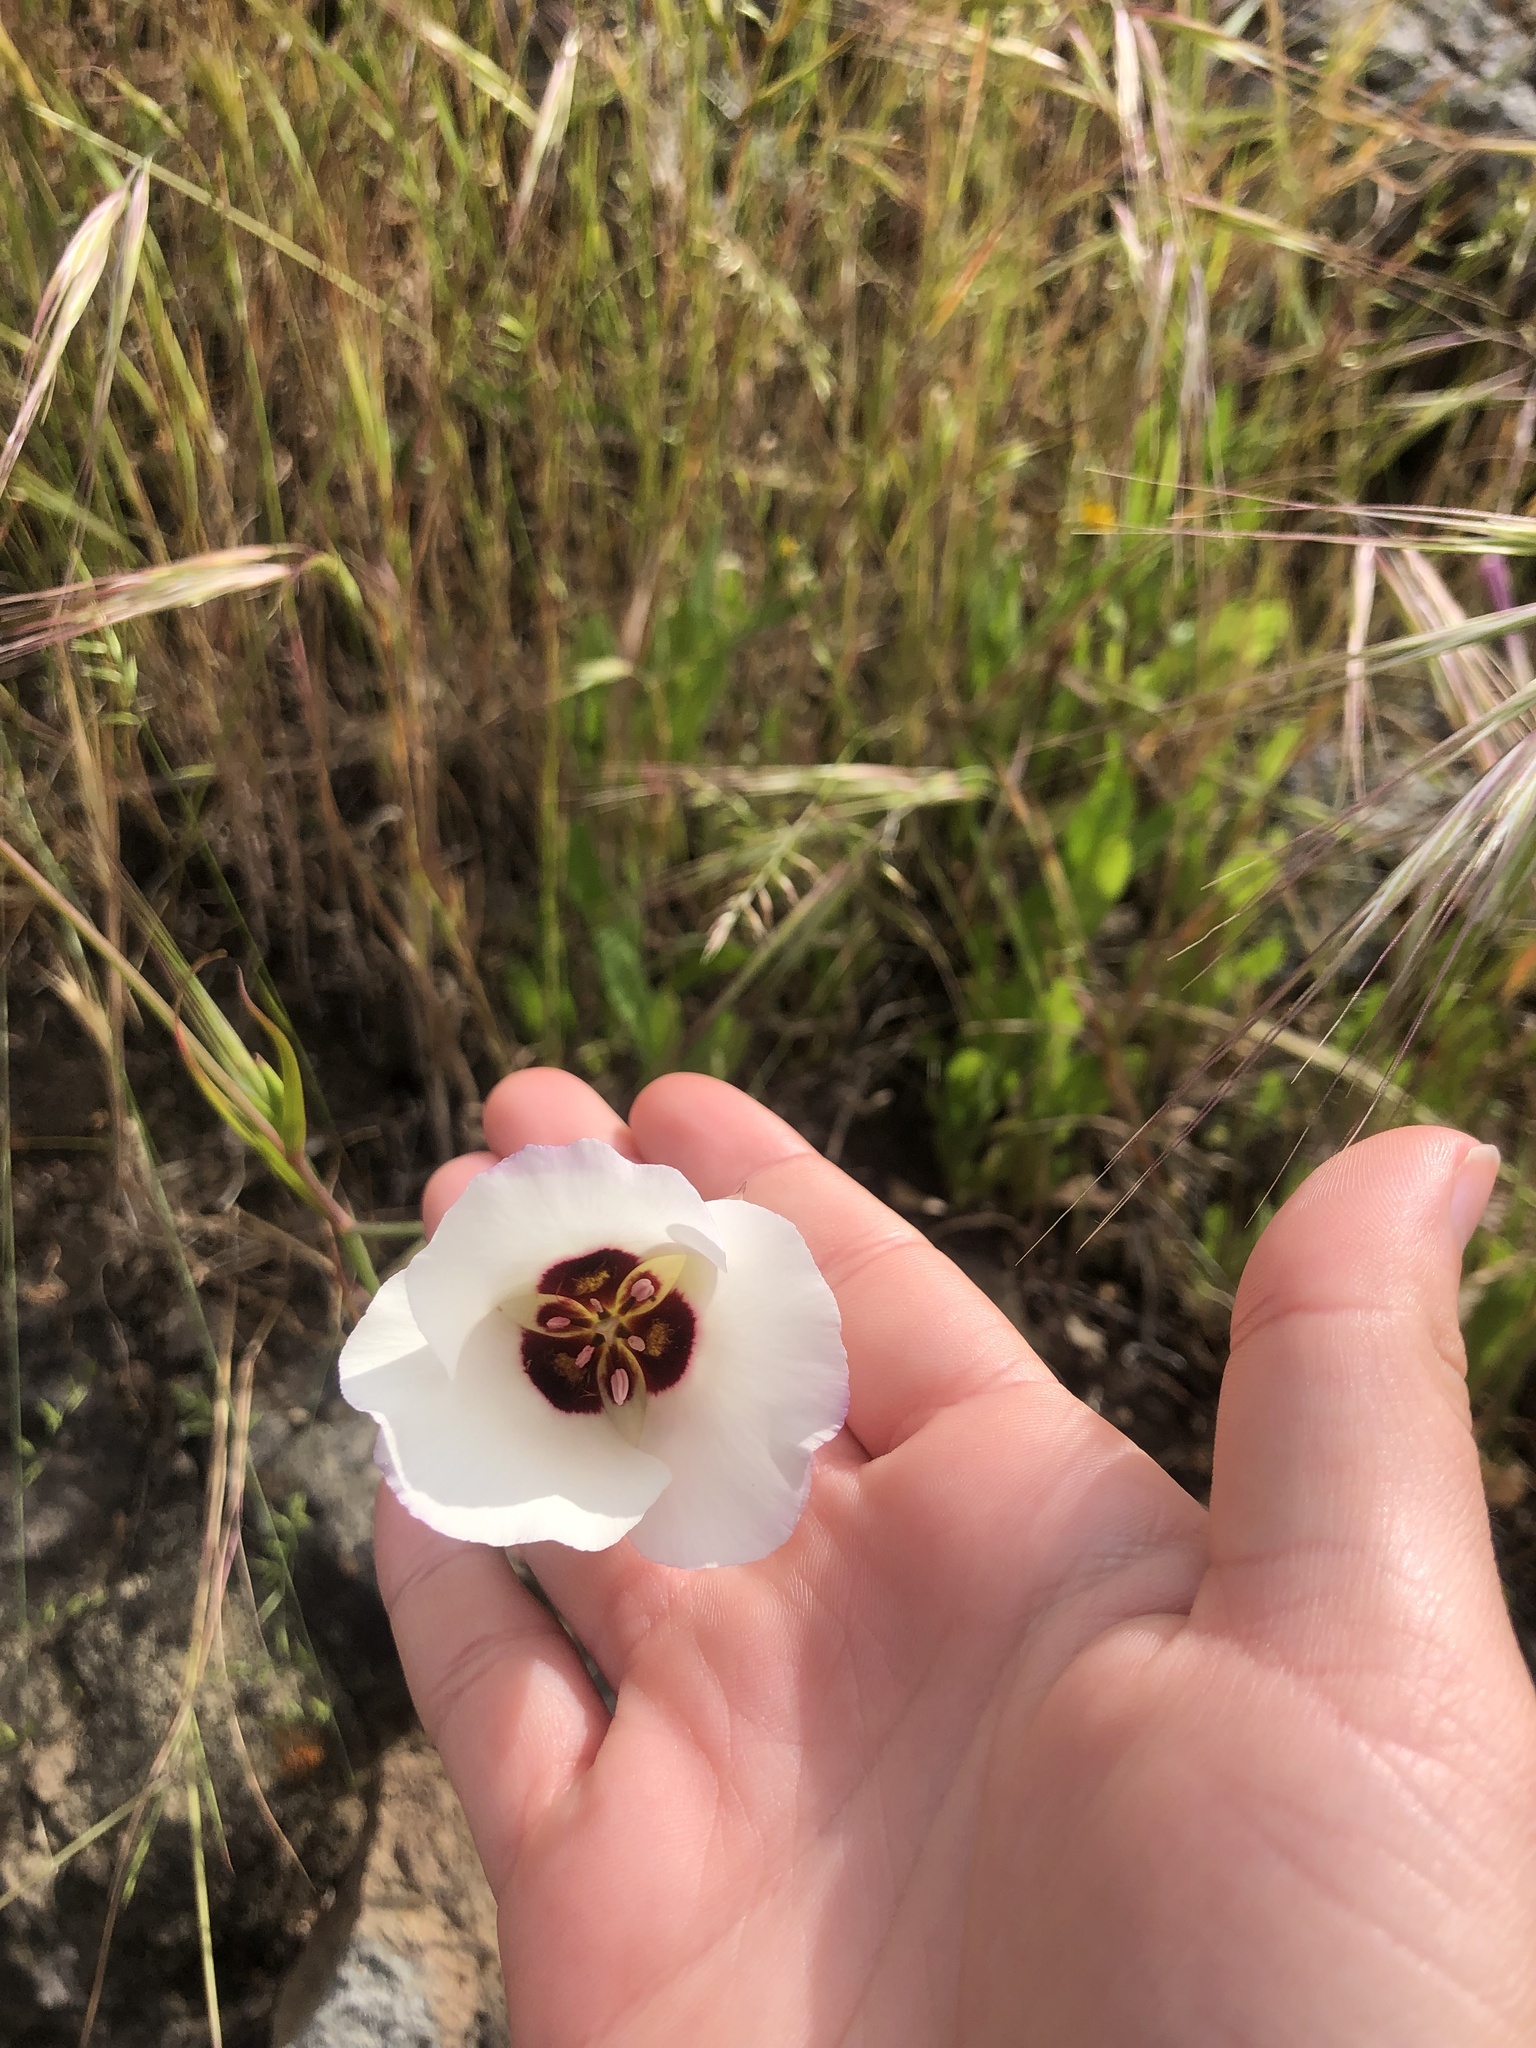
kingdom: Plantae
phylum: Tracheophyta
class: Liliopsida
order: Liliales
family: Liliaceae
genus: Calochortus
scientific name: Calochortus catalinae
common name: Catalina mariposa-lily
